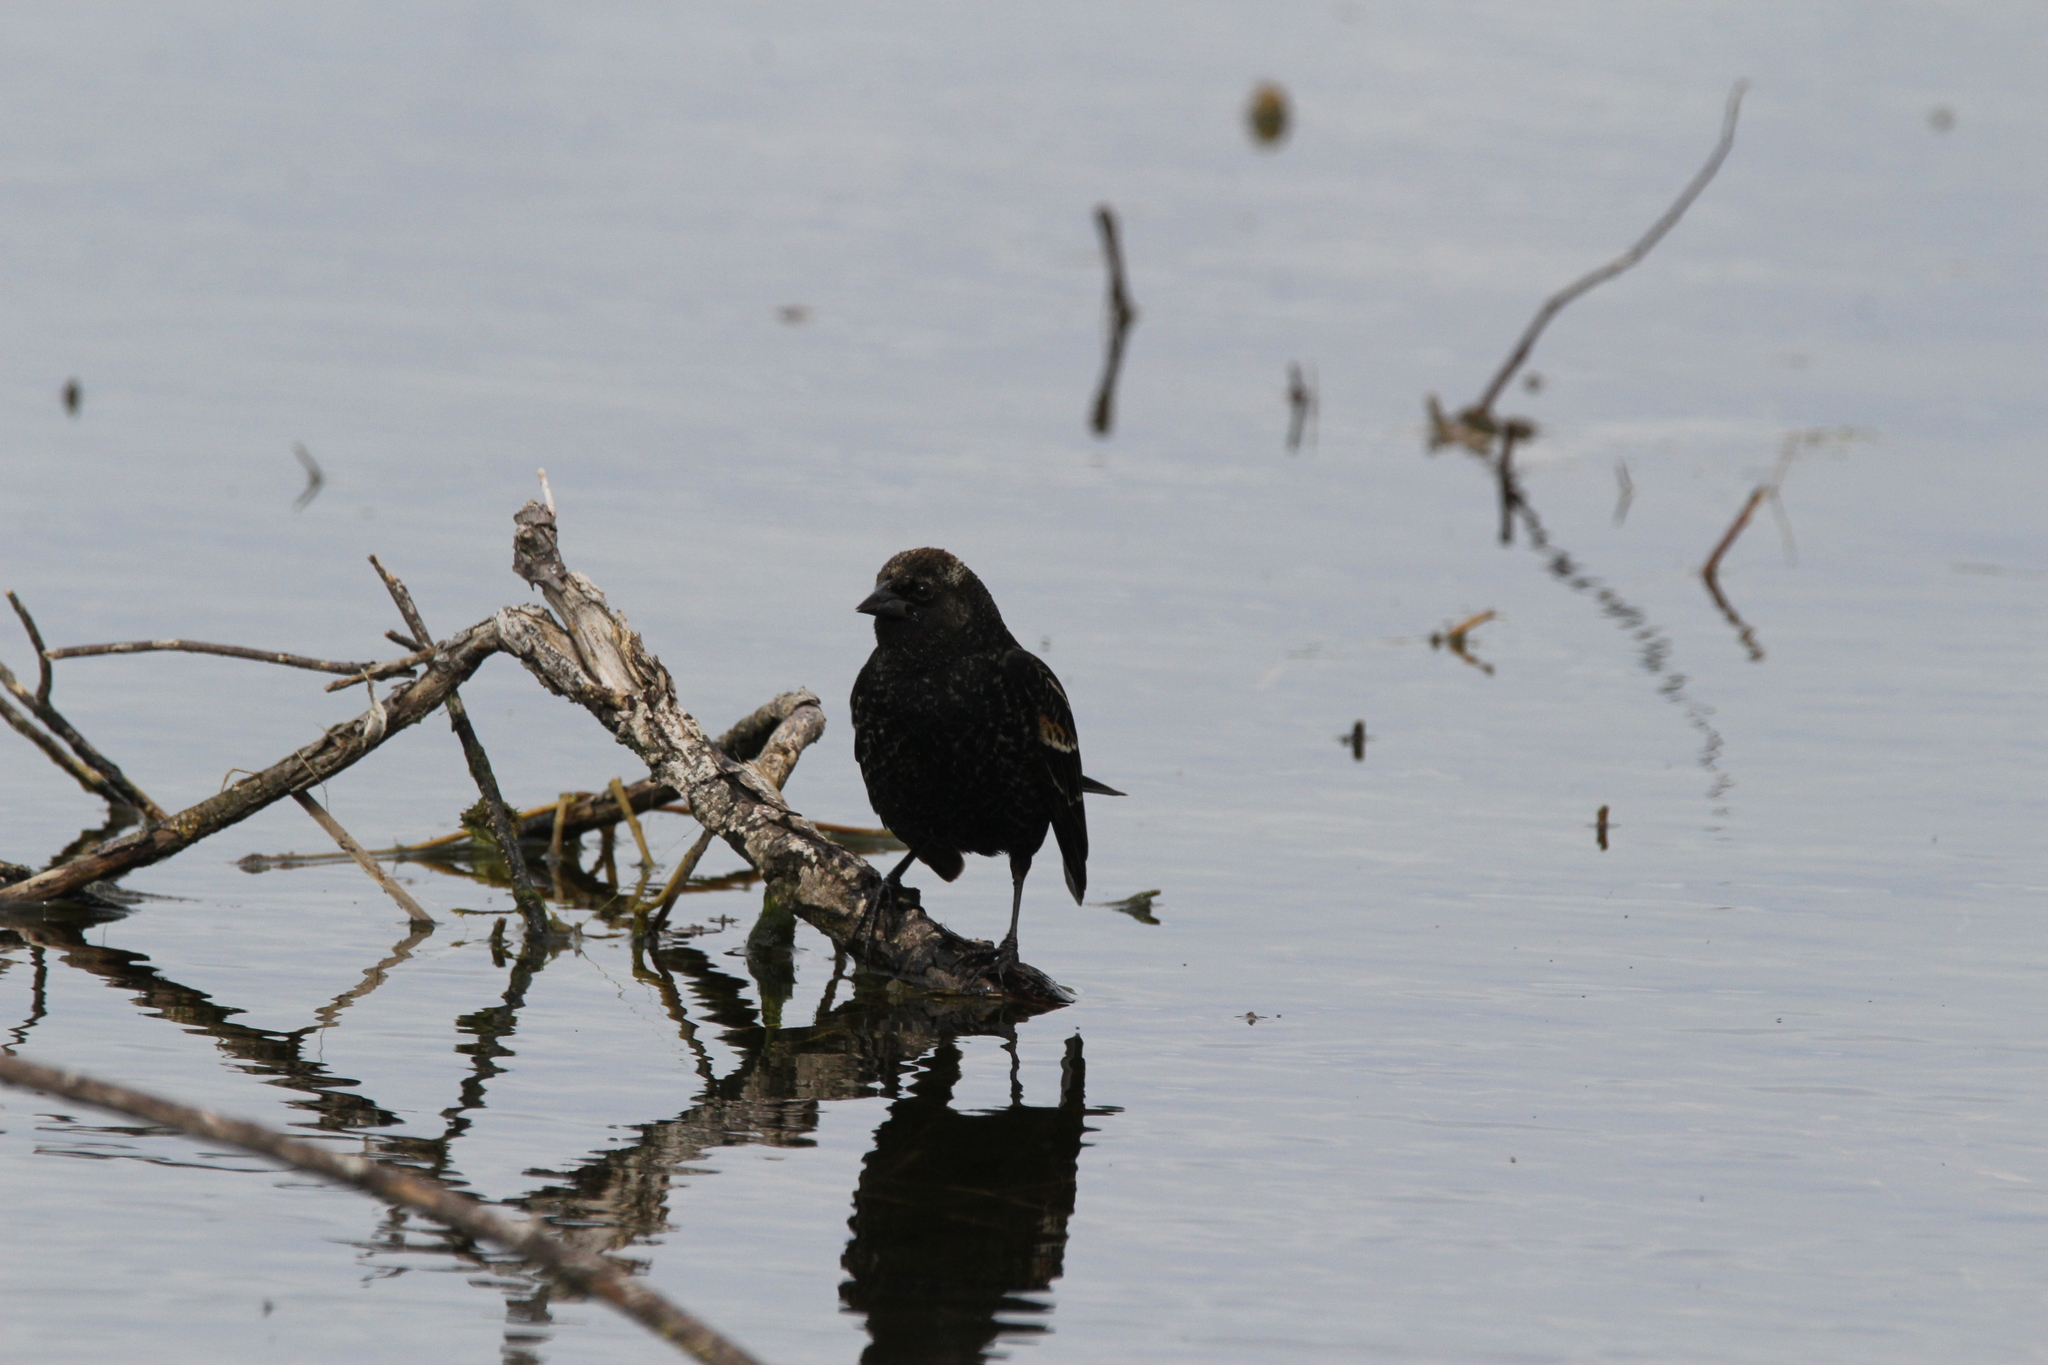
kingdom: Animalia
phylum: Chordata
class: Aves
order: Passeriformes
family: Icteridae
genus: Agelaius
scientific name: Agelaius phoeniceus
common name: Red-winged blackbird
